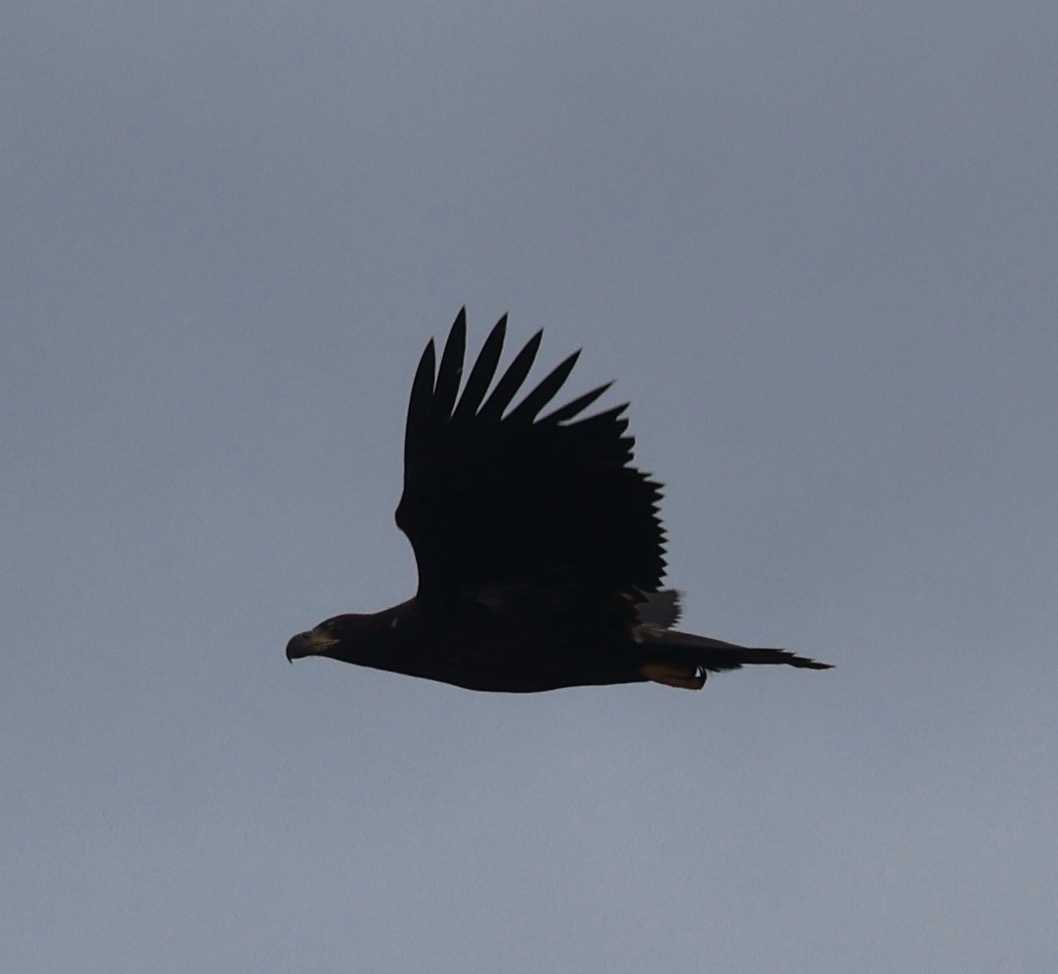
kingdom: Animalia
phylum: Chordata
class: Aves
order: Accipitriformes
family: Accipitridae
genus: Haliaeetus
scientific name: Haliaeetus albicilla
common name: White-tailed eagle
